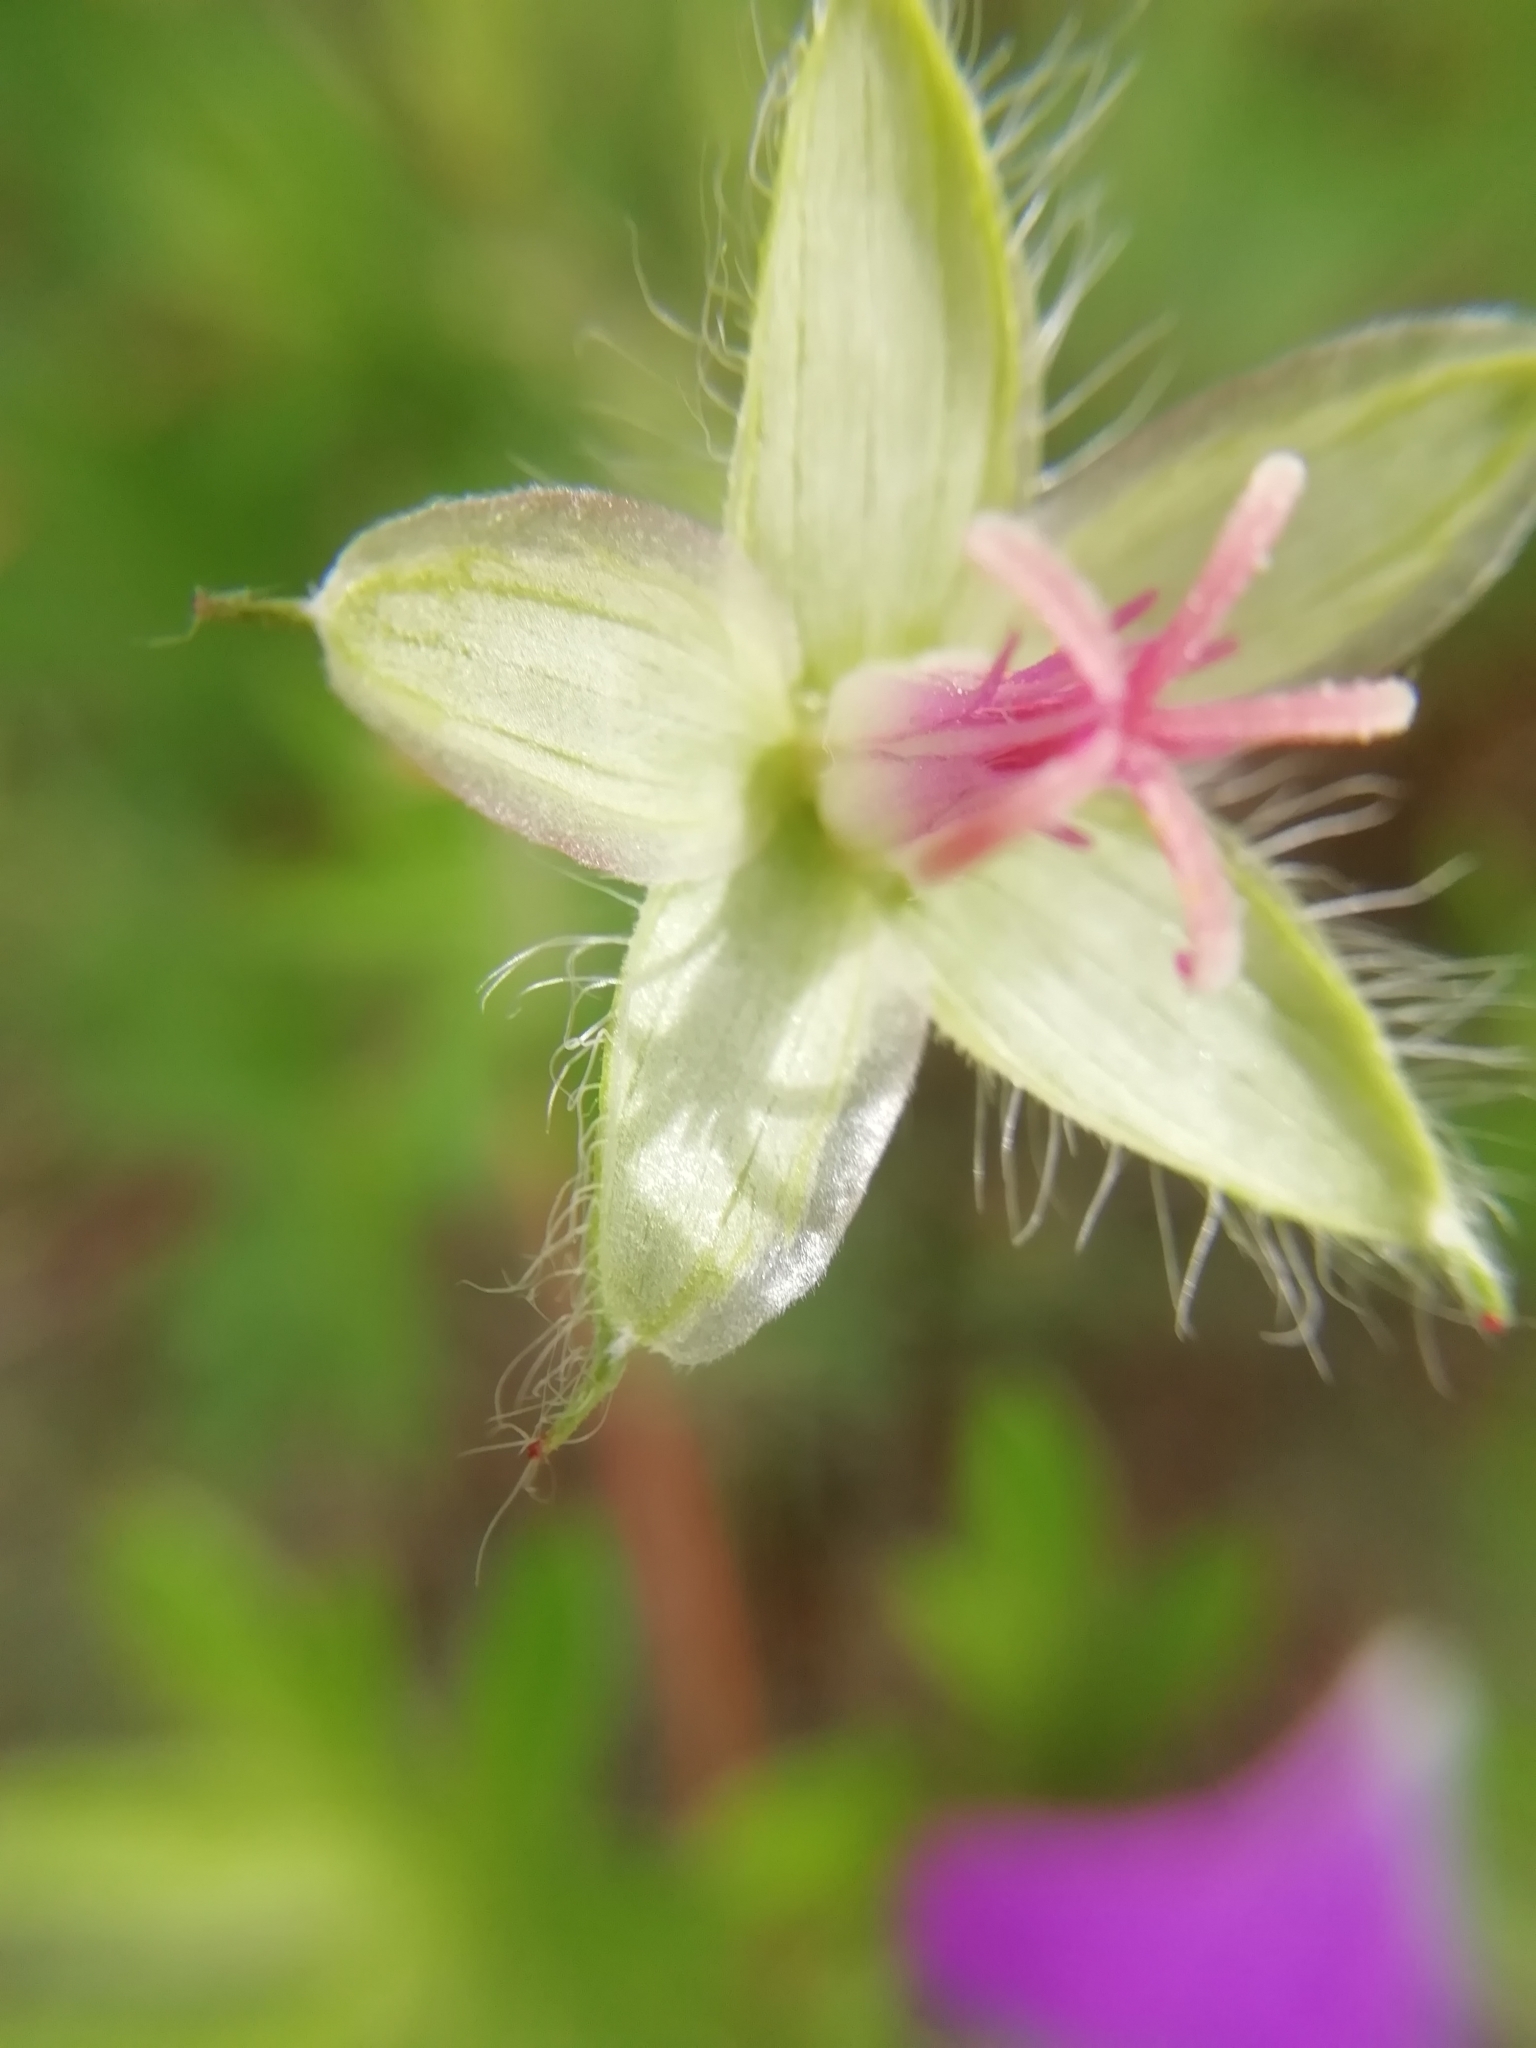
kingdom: Plantae
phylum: Tracheophyta
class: Magnoliopsida
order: Geraniales
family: Geraniaceae
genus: Geranium
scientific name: Geranium sanguineum
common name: Bloody crane's-bill
